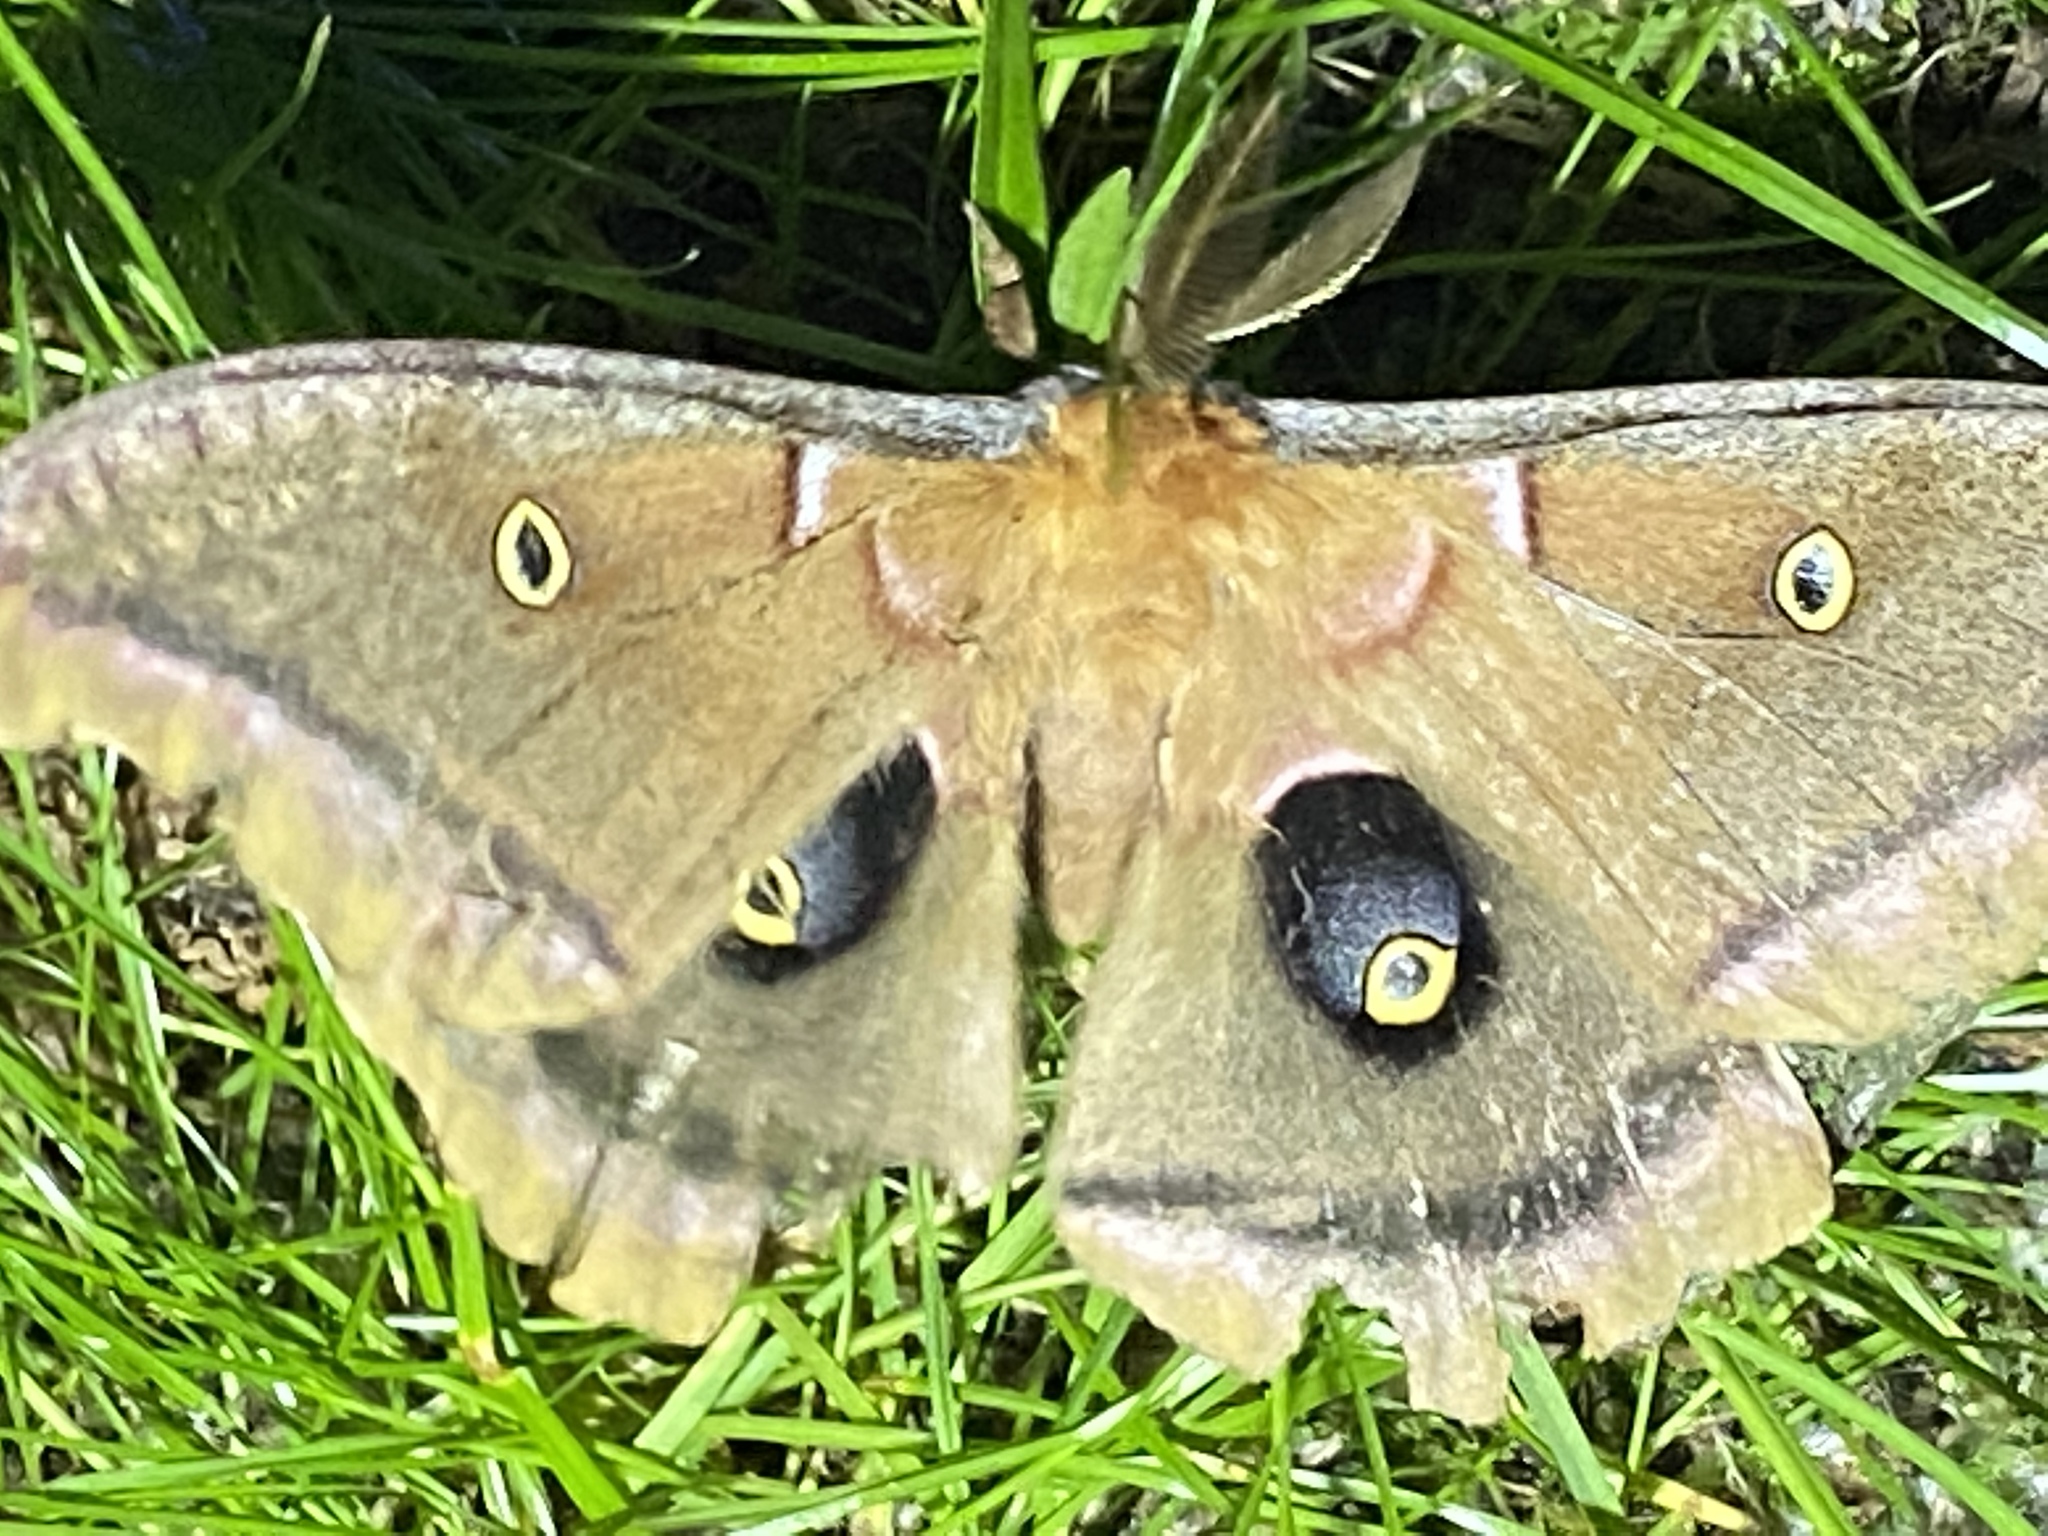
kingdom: Animalia
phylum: Arthropoda
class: Insecta
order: Lepidoptera
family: Saturniidae
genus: Antheraea
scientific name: Antheraea polyphemus
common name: Polyphemus moth
